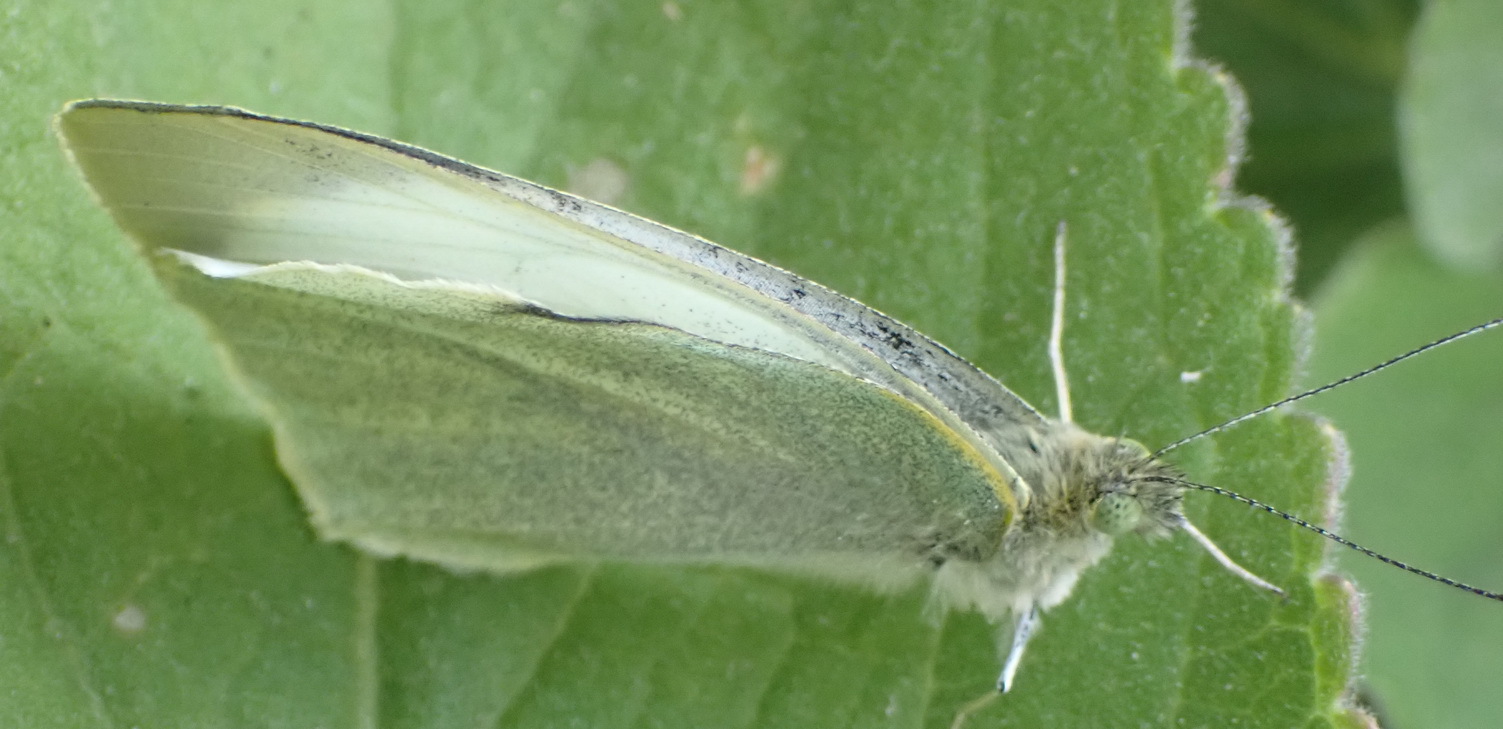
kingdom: Animalia
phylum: Arthropoda
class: Insecta
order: Lepidoptera
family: Pieridae
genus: Pieris
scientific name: Pieris brassicae
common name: Large white
